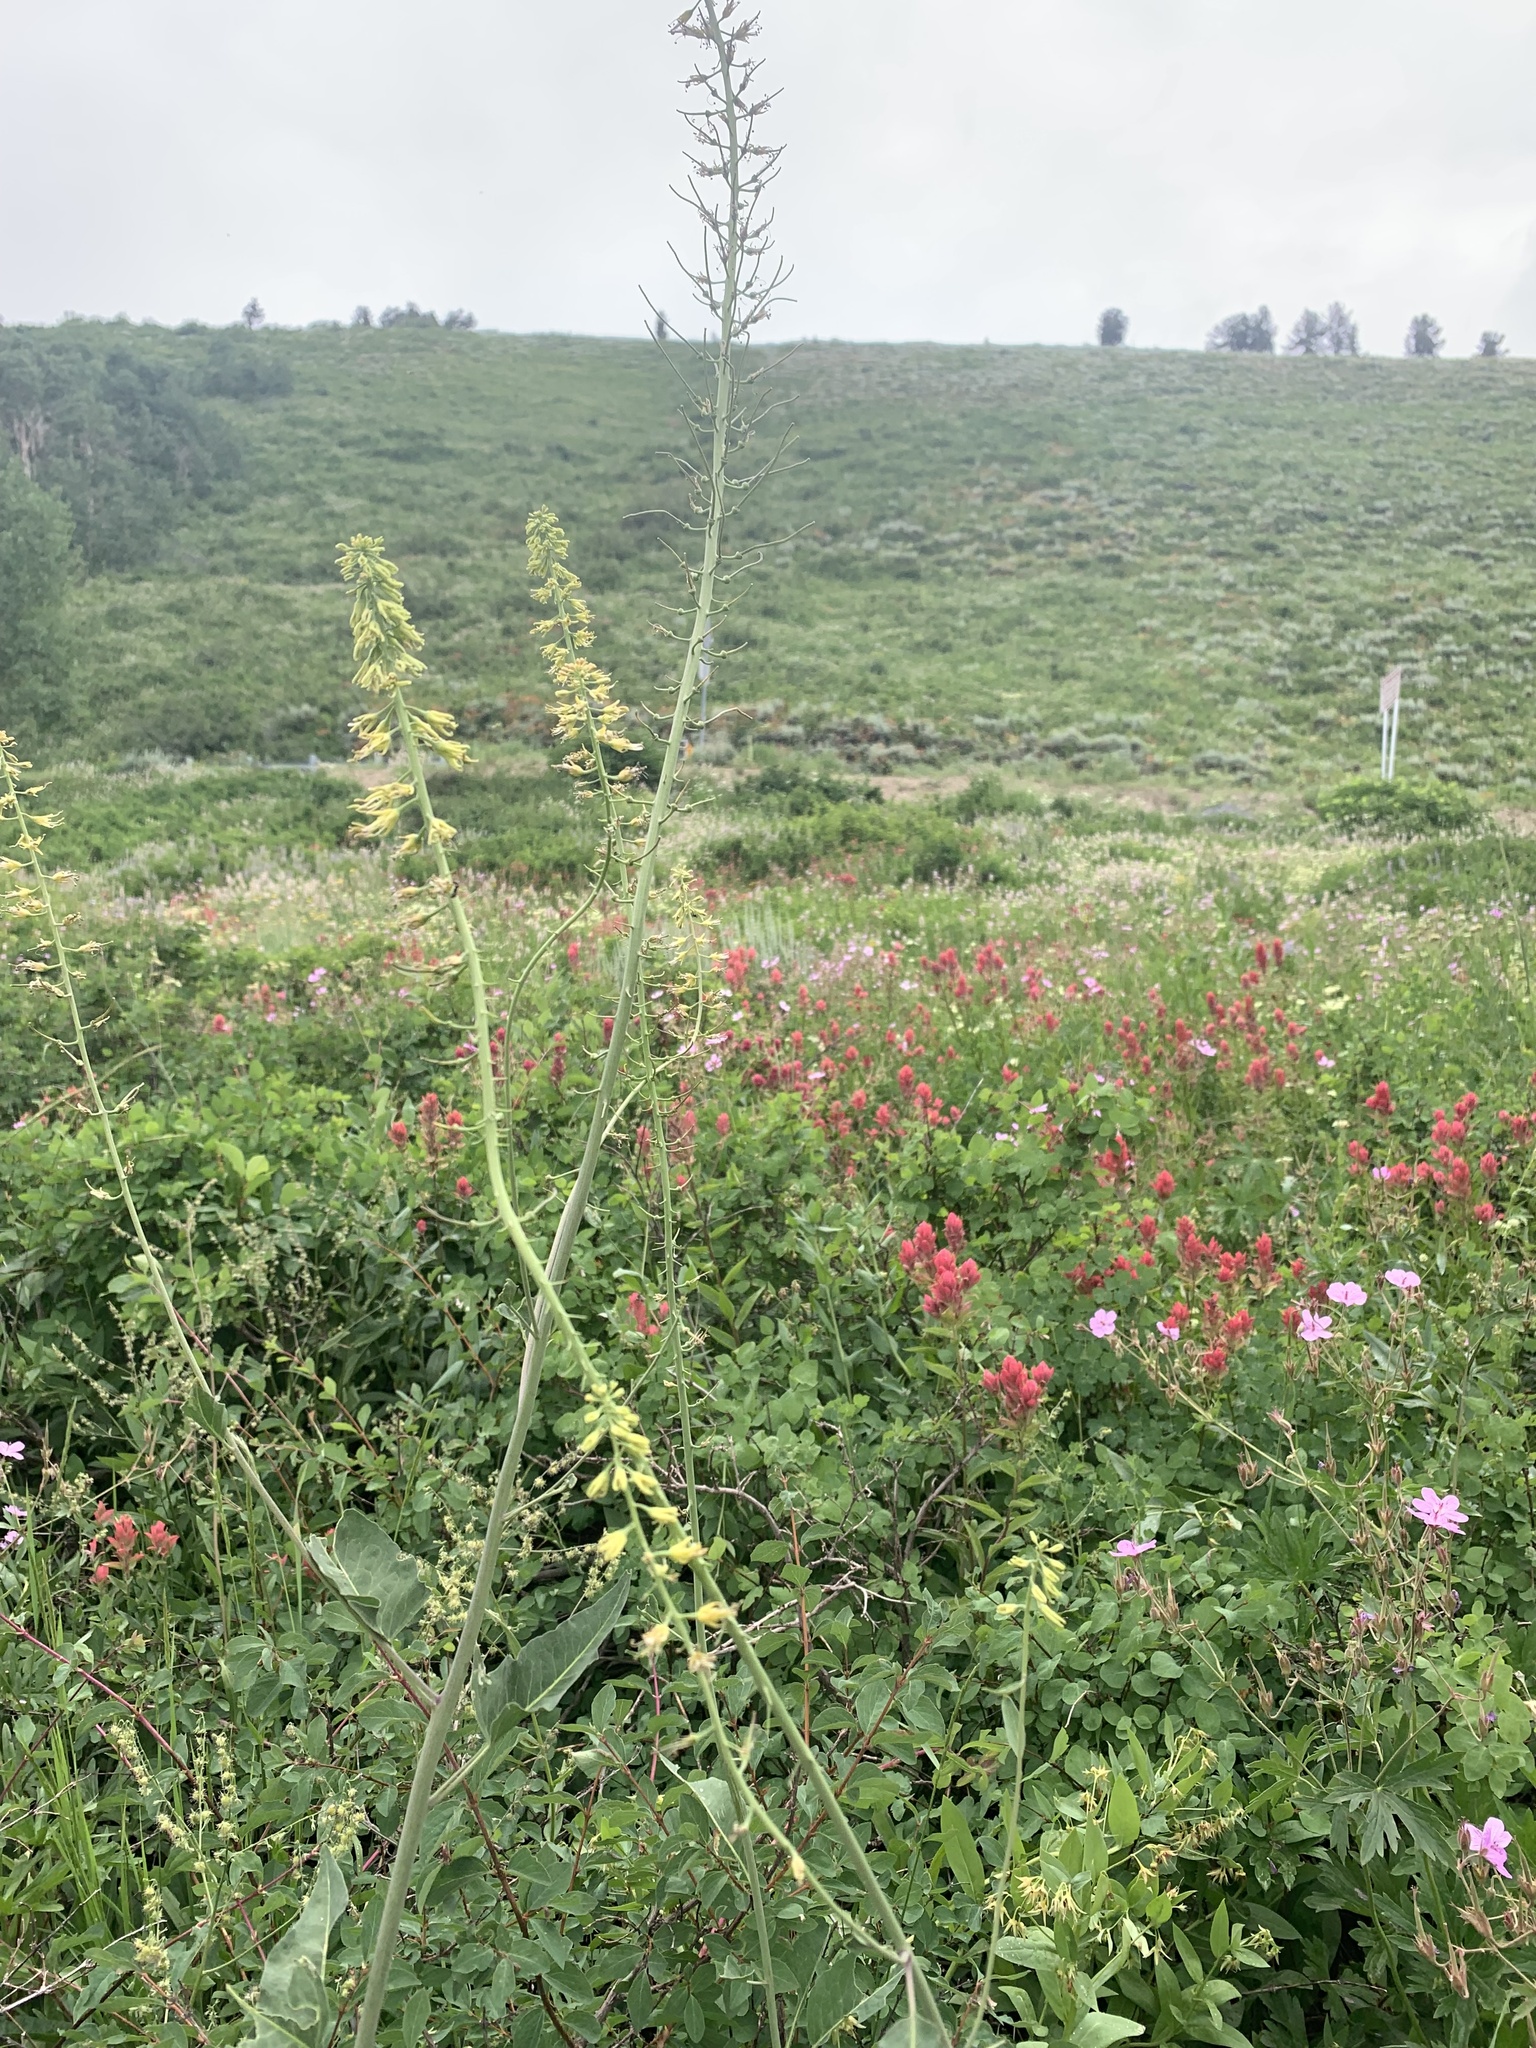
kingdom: Plantae
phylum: Tracheophyta
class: Magnoliopsida
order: Brassicales
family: Brassicaceae
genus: Chlorocrambe
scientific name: Chlorocrambe hastata
